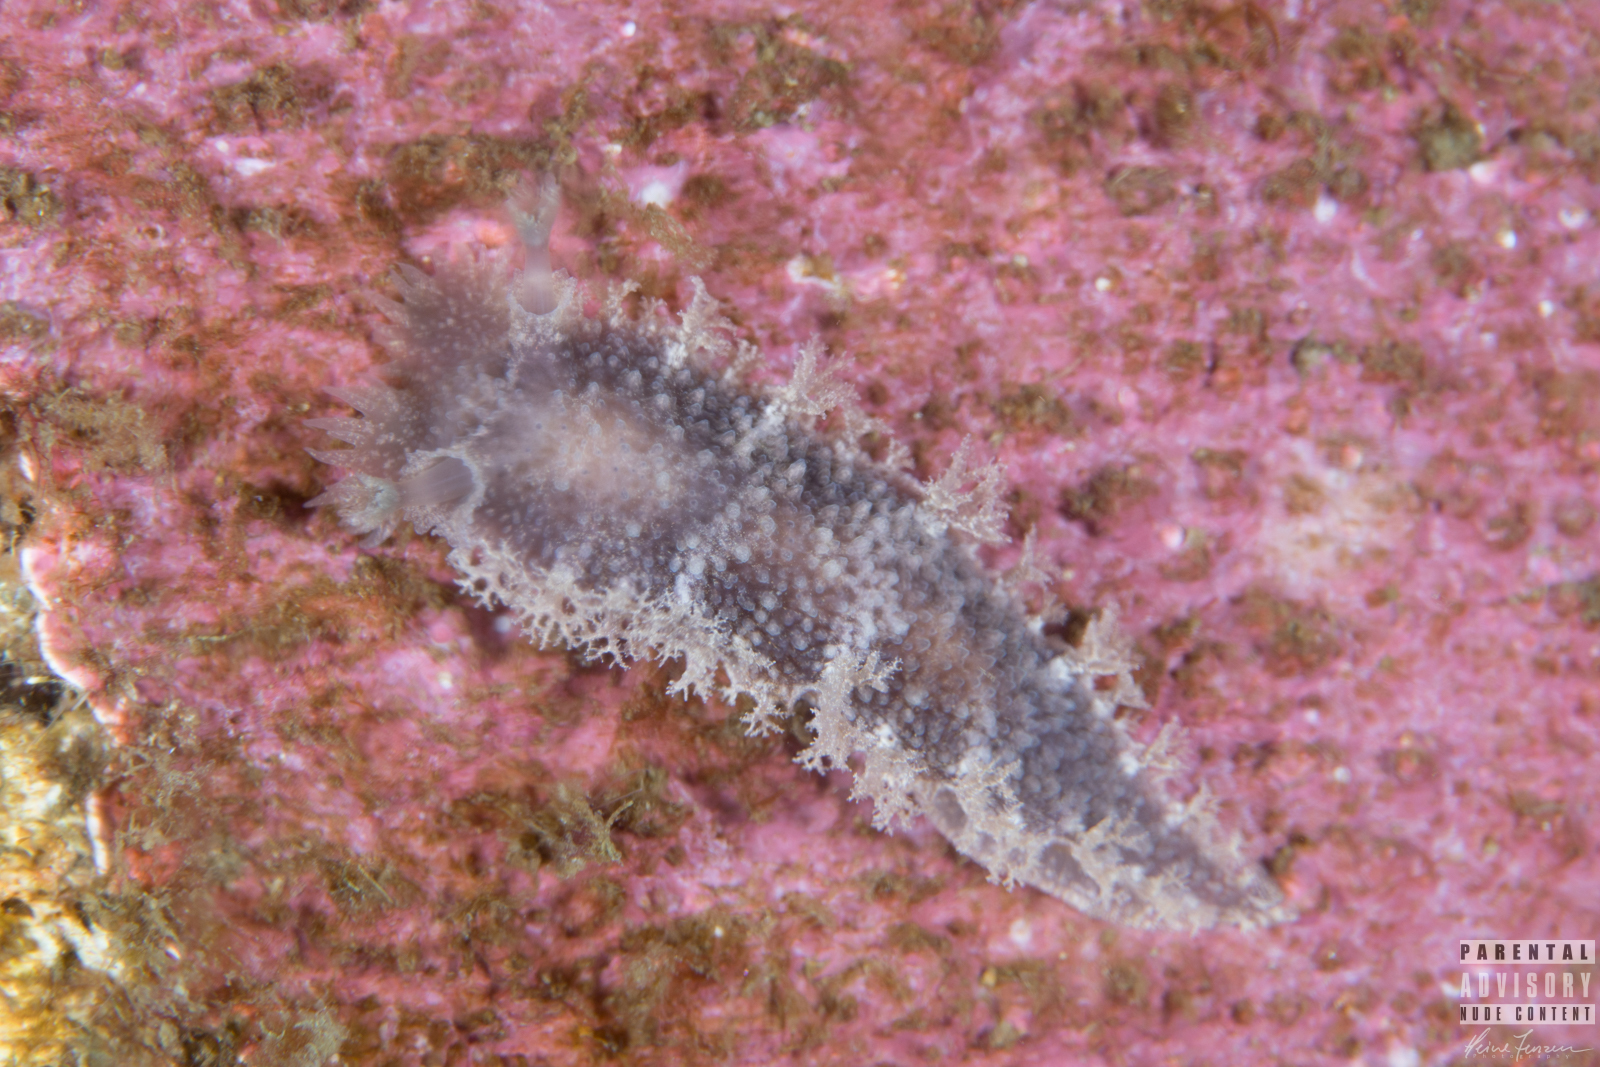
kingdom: Animalia
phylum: Mollusca
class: Gastropoda
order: Nudibranchia
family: Tritoniidae
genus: Tritonia
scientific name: Tritonia hombergii
